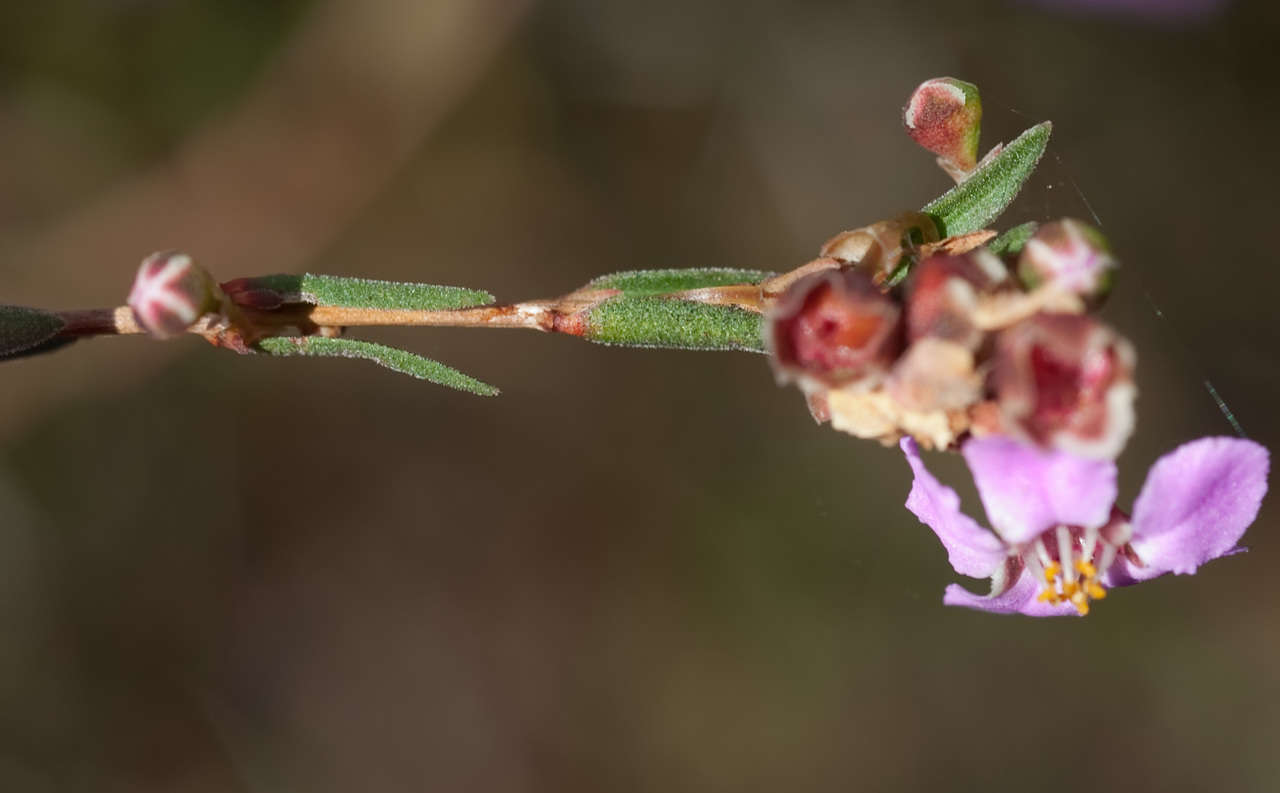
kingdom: Plantae
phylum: Tracheophyta
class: Magnoliopsida
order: Myrtales
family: Myrtaceae
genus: Euryomyrtus
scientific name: Euryomyrtus ramosissima
